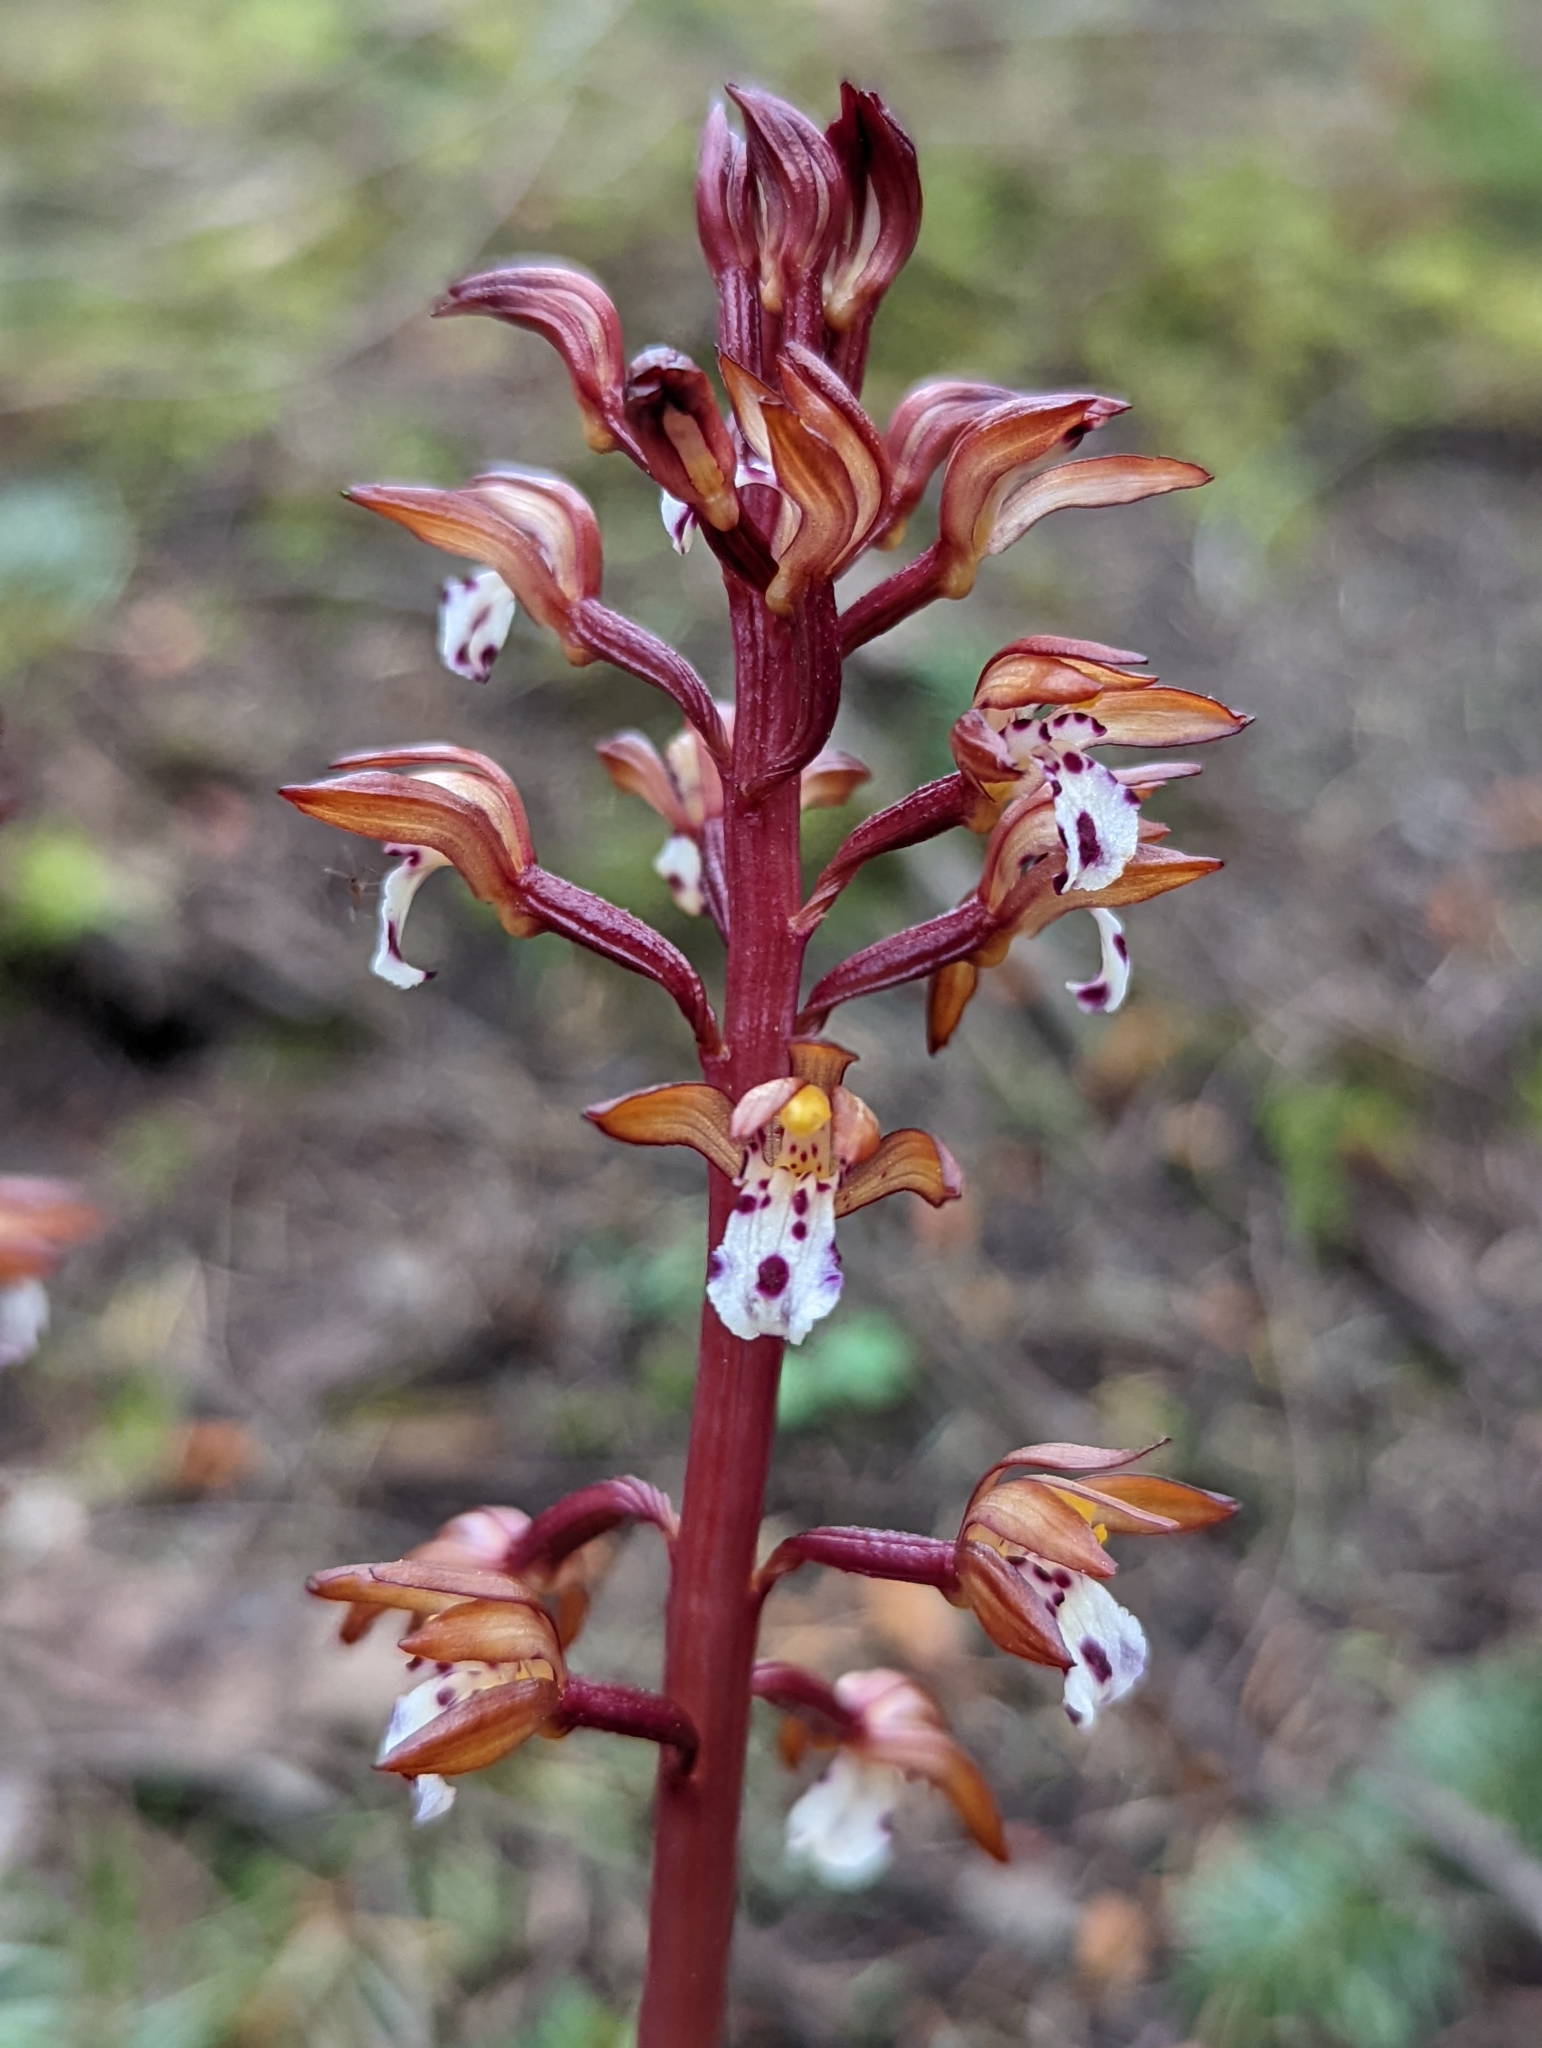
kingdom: Plantae
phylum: Tracheophyta
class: Liliopsida
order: Asparagales
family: Orchidaceae
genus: Corallorhiza
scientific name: Corallorhiza maculata
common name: Spotted coralroot
